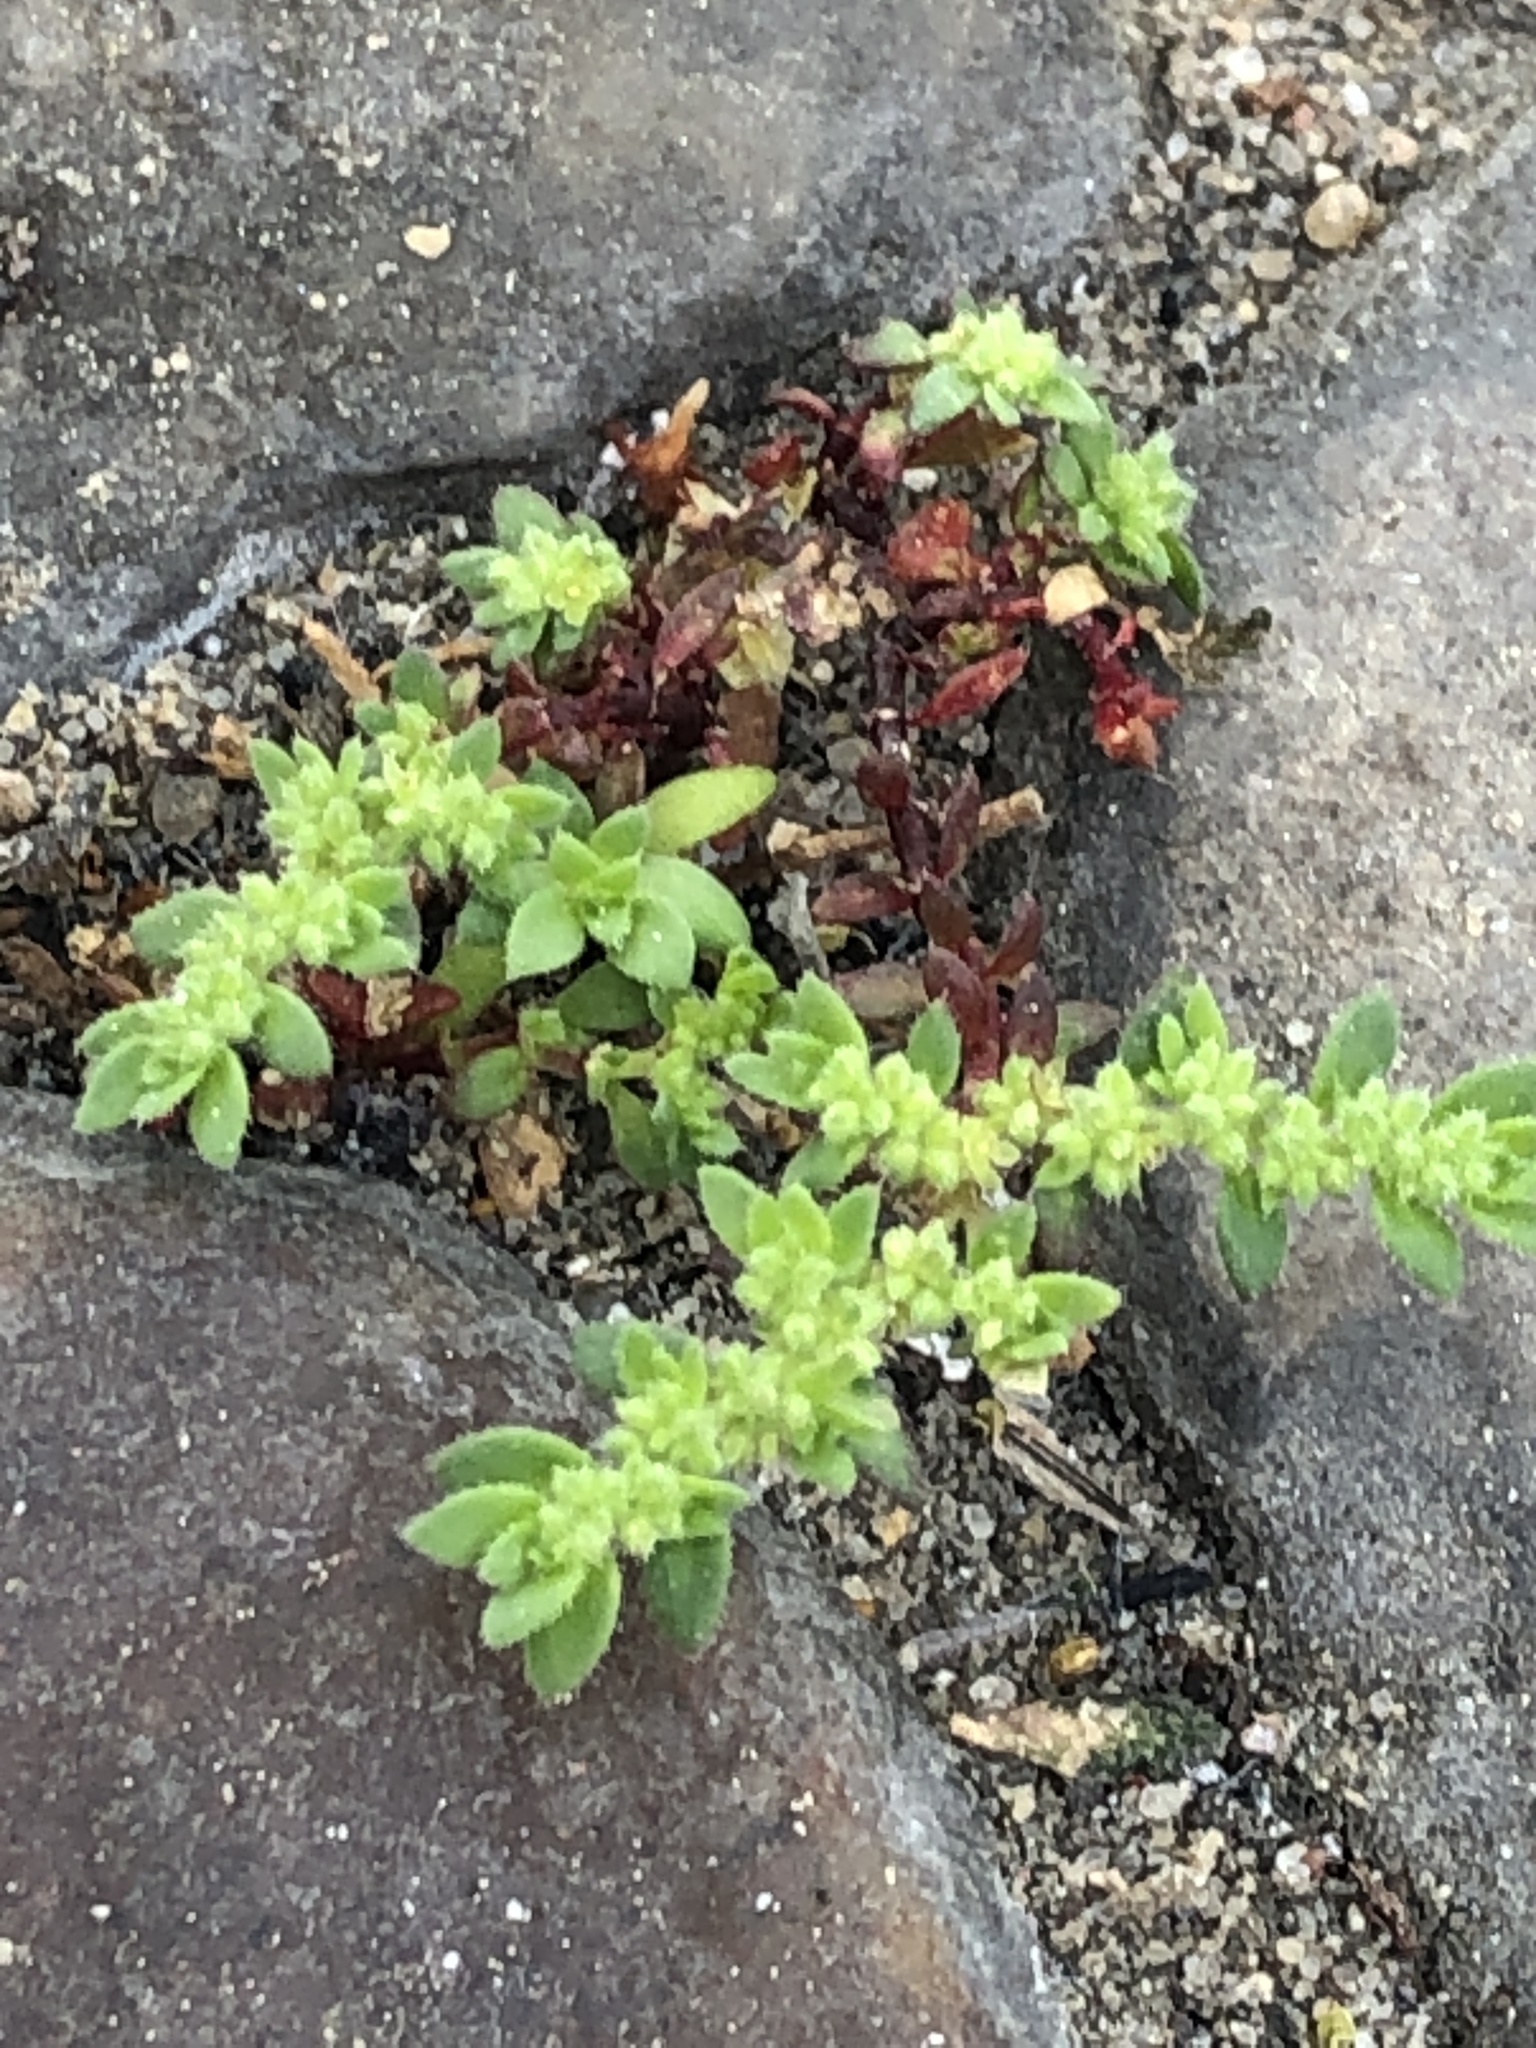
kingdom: Plantae
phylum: Tracheophyta
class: Magnoliopsida
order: Caryophyllales
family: Caryophyllaceae
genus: Herniaria
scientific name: Herniaria hirsuta
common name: Hairy rupturewort
